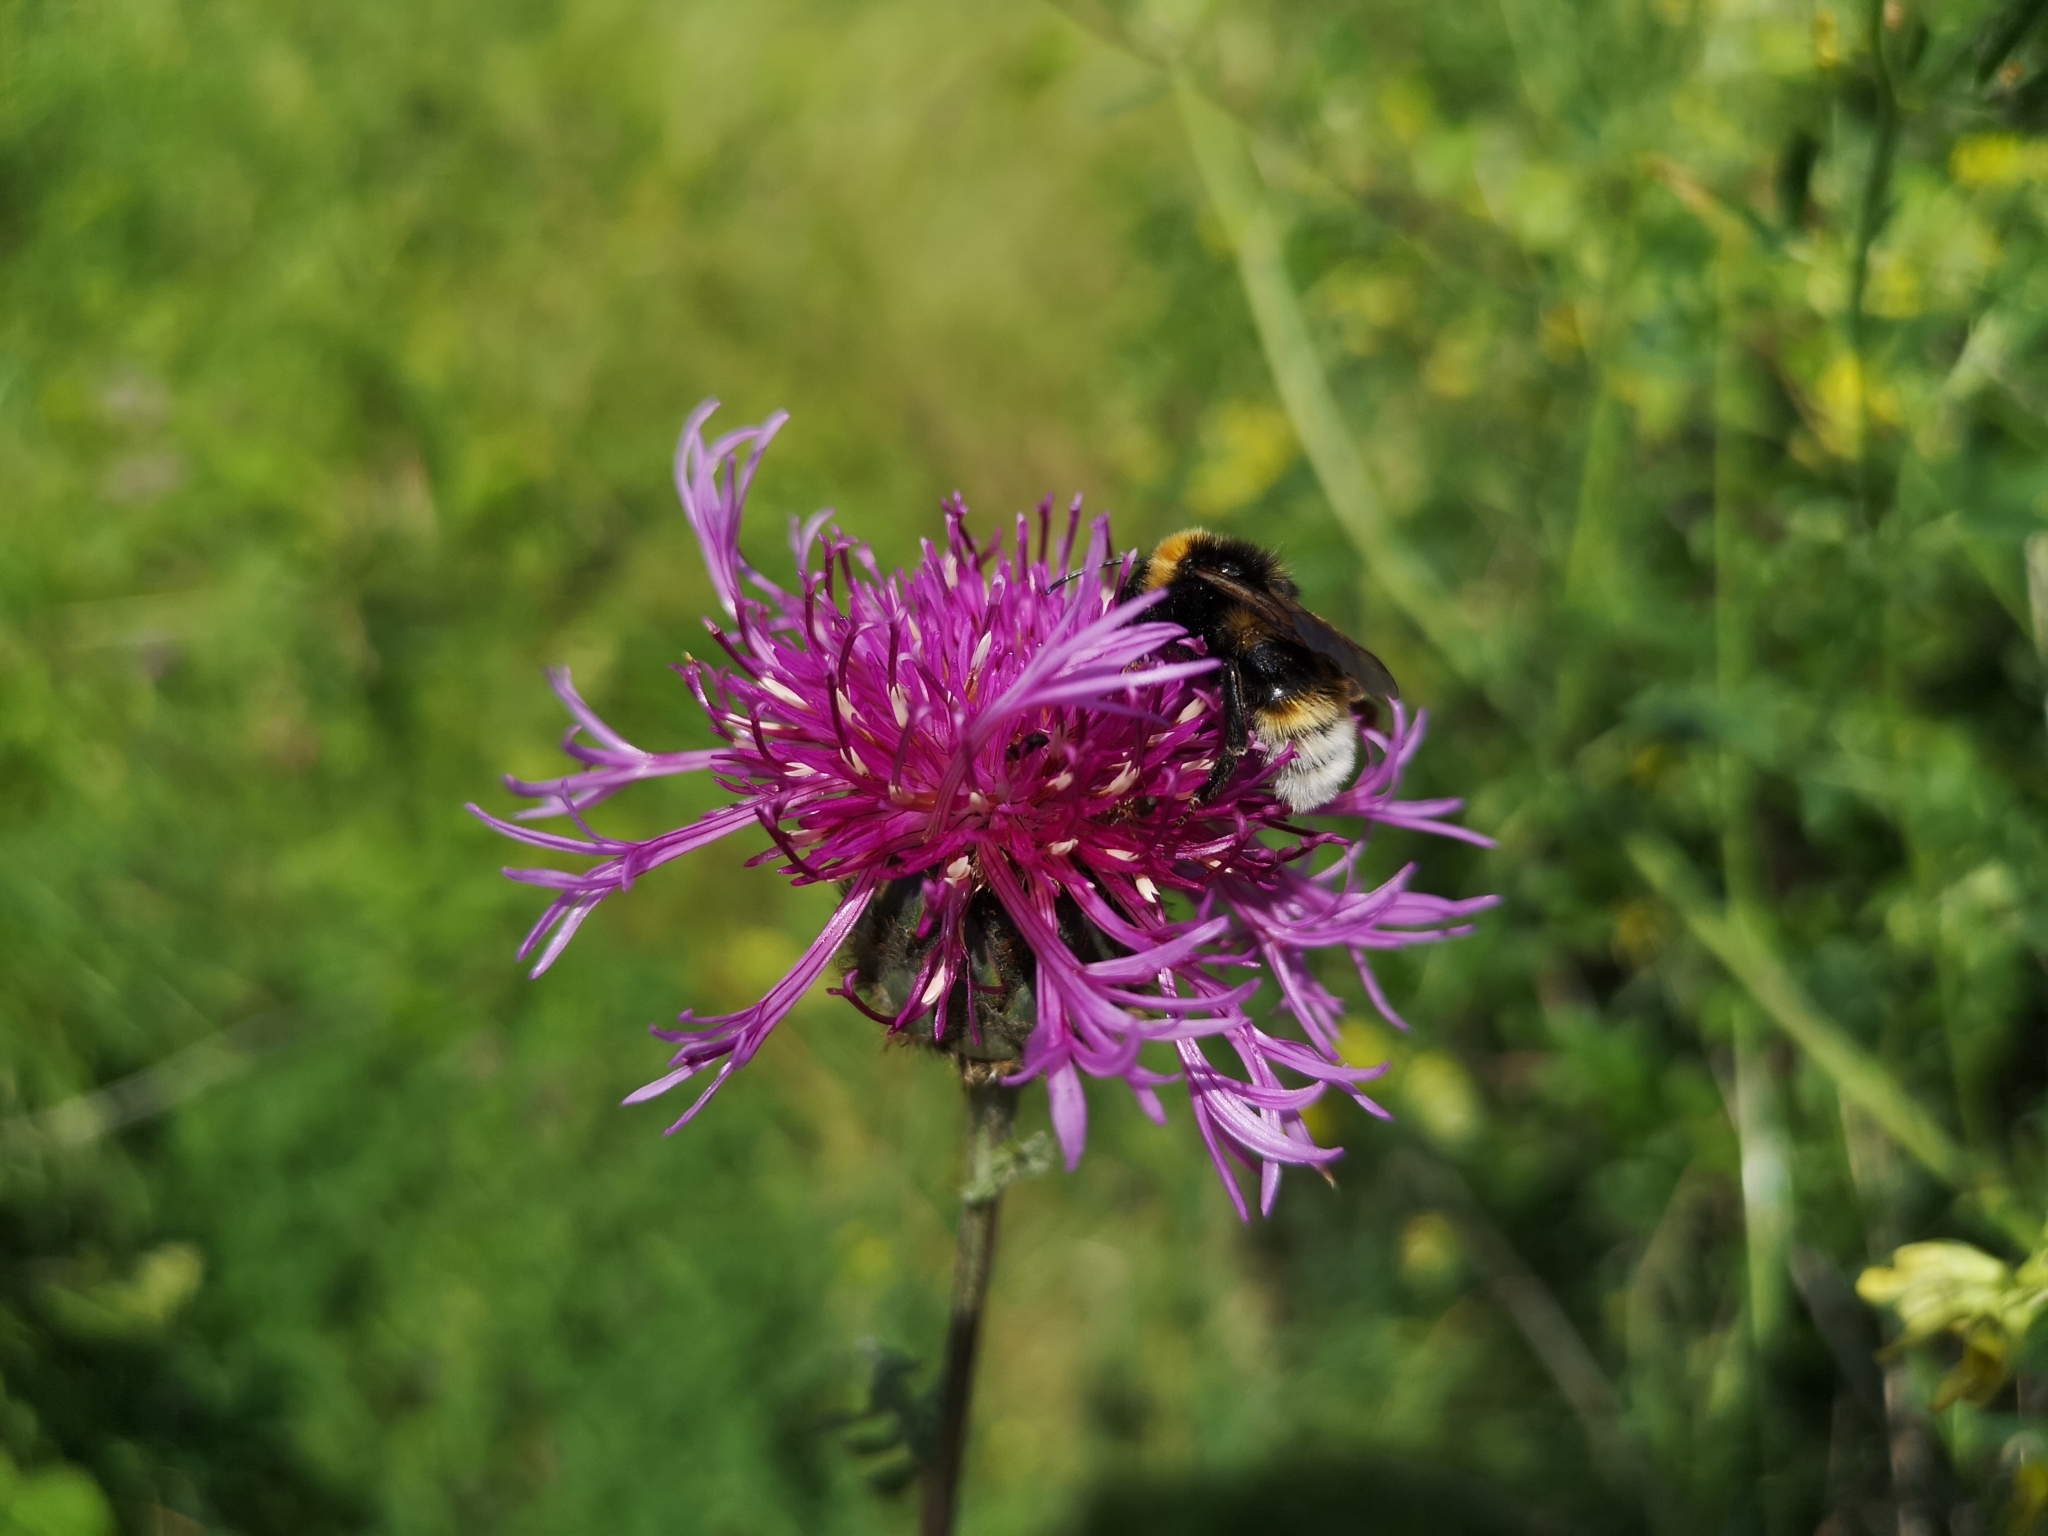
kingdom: Plantae
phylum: Tracheophyta
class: Magnoliopsida
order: Asterales
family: Asteraceae
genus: Centaurea
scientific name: Centaurea scabiosa
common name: Greater knapweed
